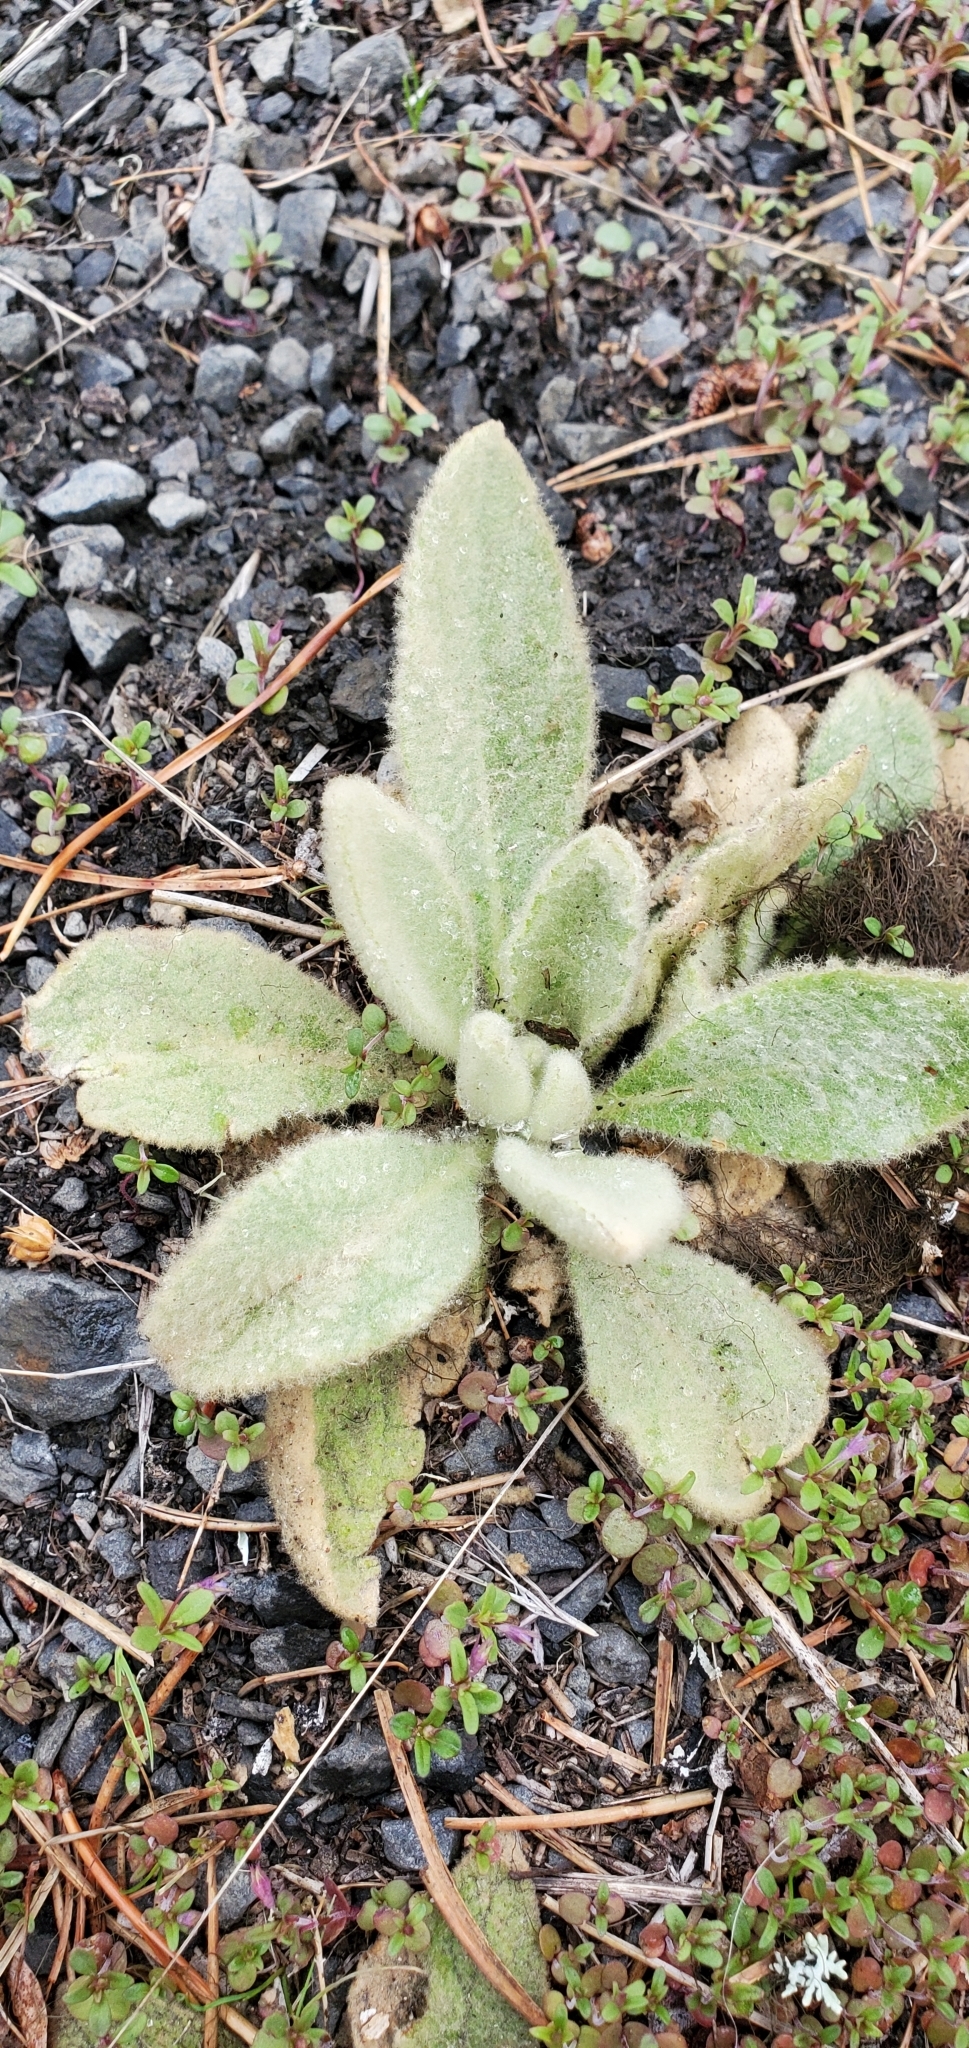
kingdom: Plantae
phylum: Tracheophyta
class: Magnoliopsida
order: Lamiales
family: Scrophulariaceae
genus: Verbascum
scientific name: Verbascum thapsus
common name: Common mullein
